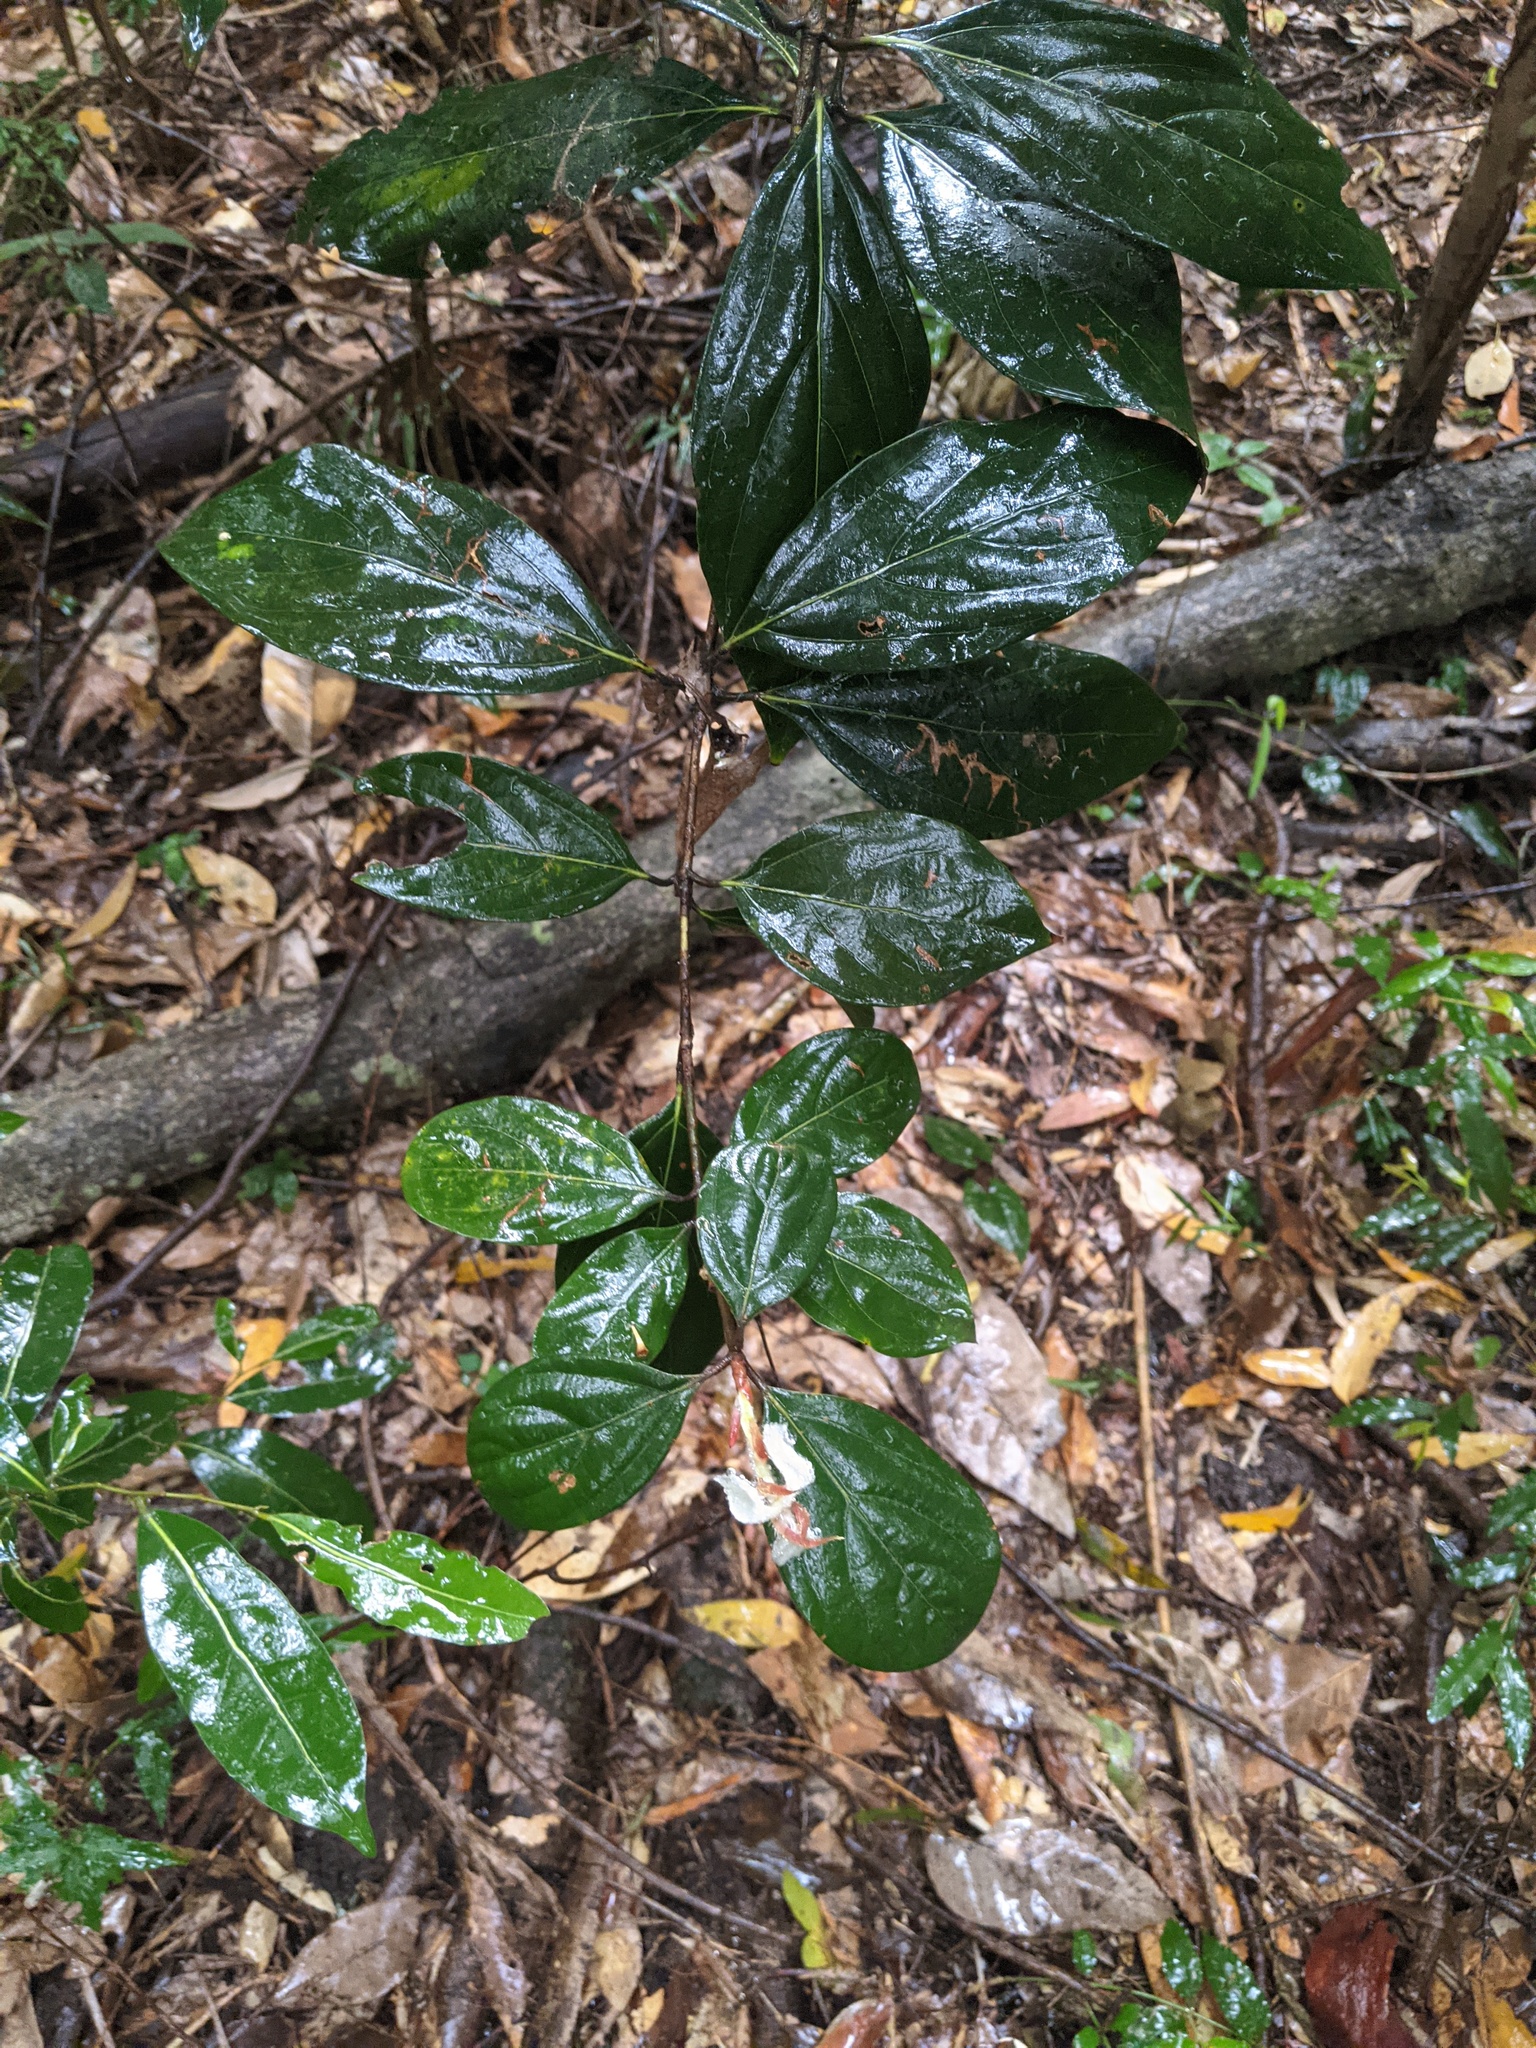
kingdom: Plantae
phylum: Tracheophyta
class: Magnoliopsida
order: Laurales
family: Lauraceae
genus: Neolitsea
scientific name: Neolitsea dealbata
